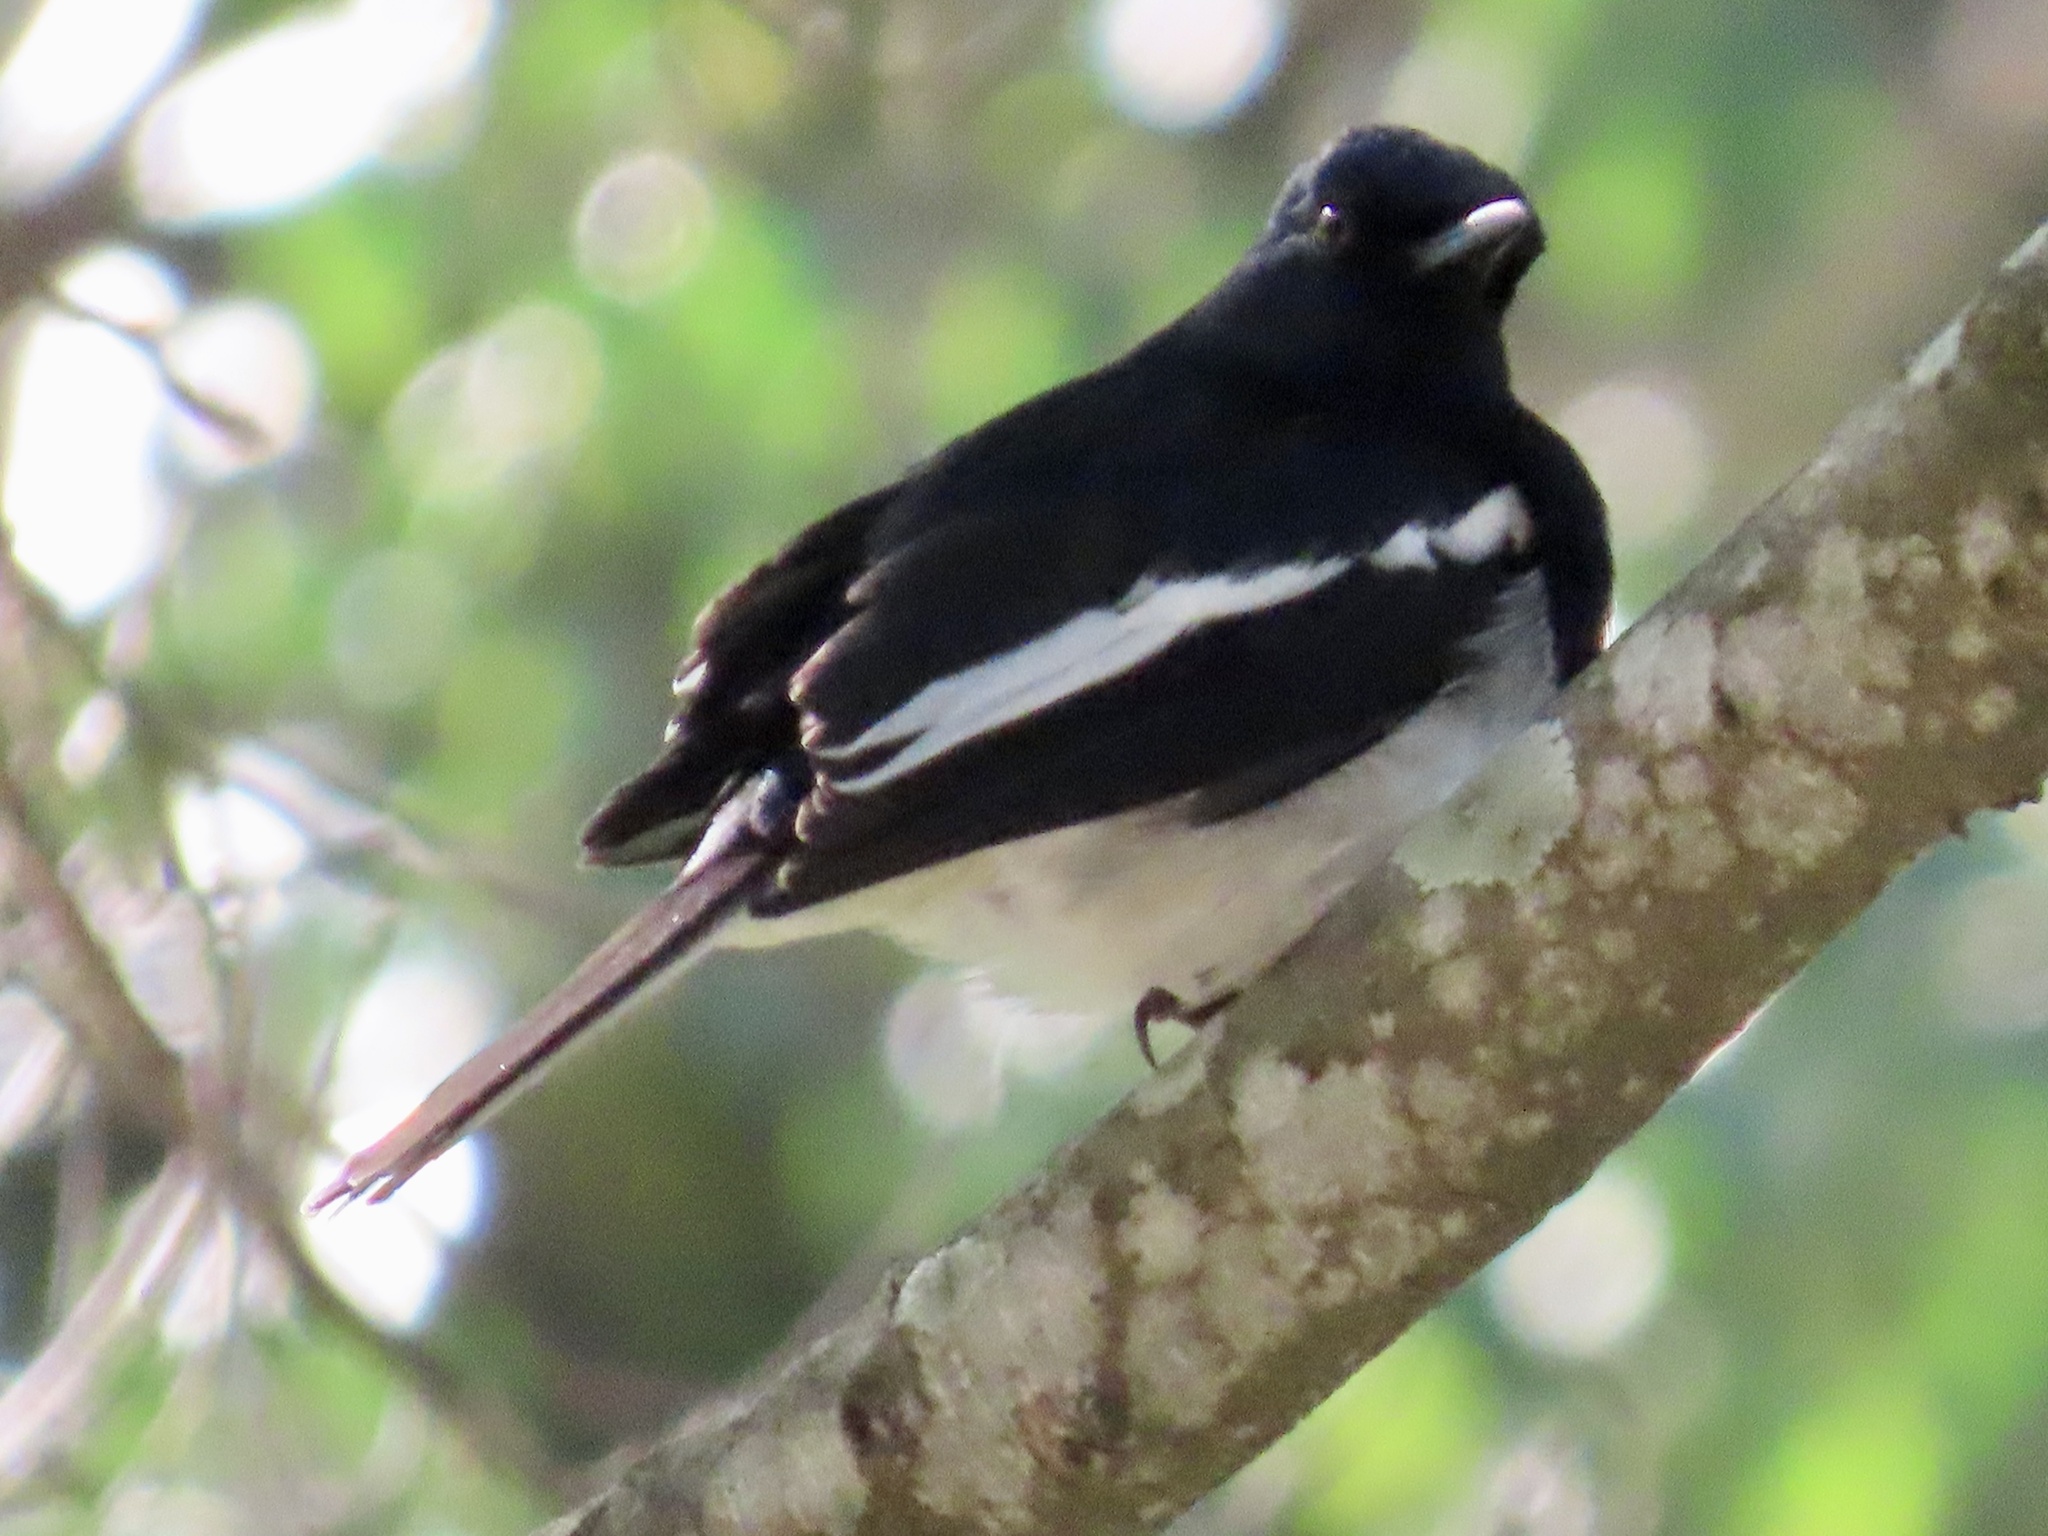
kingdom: Animalia
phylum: Chordata
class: Aves
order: Passeriformes
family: Muscicapidae
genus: Copsychus
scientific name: Copsychus saularis
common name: Oriental magpie-robin
